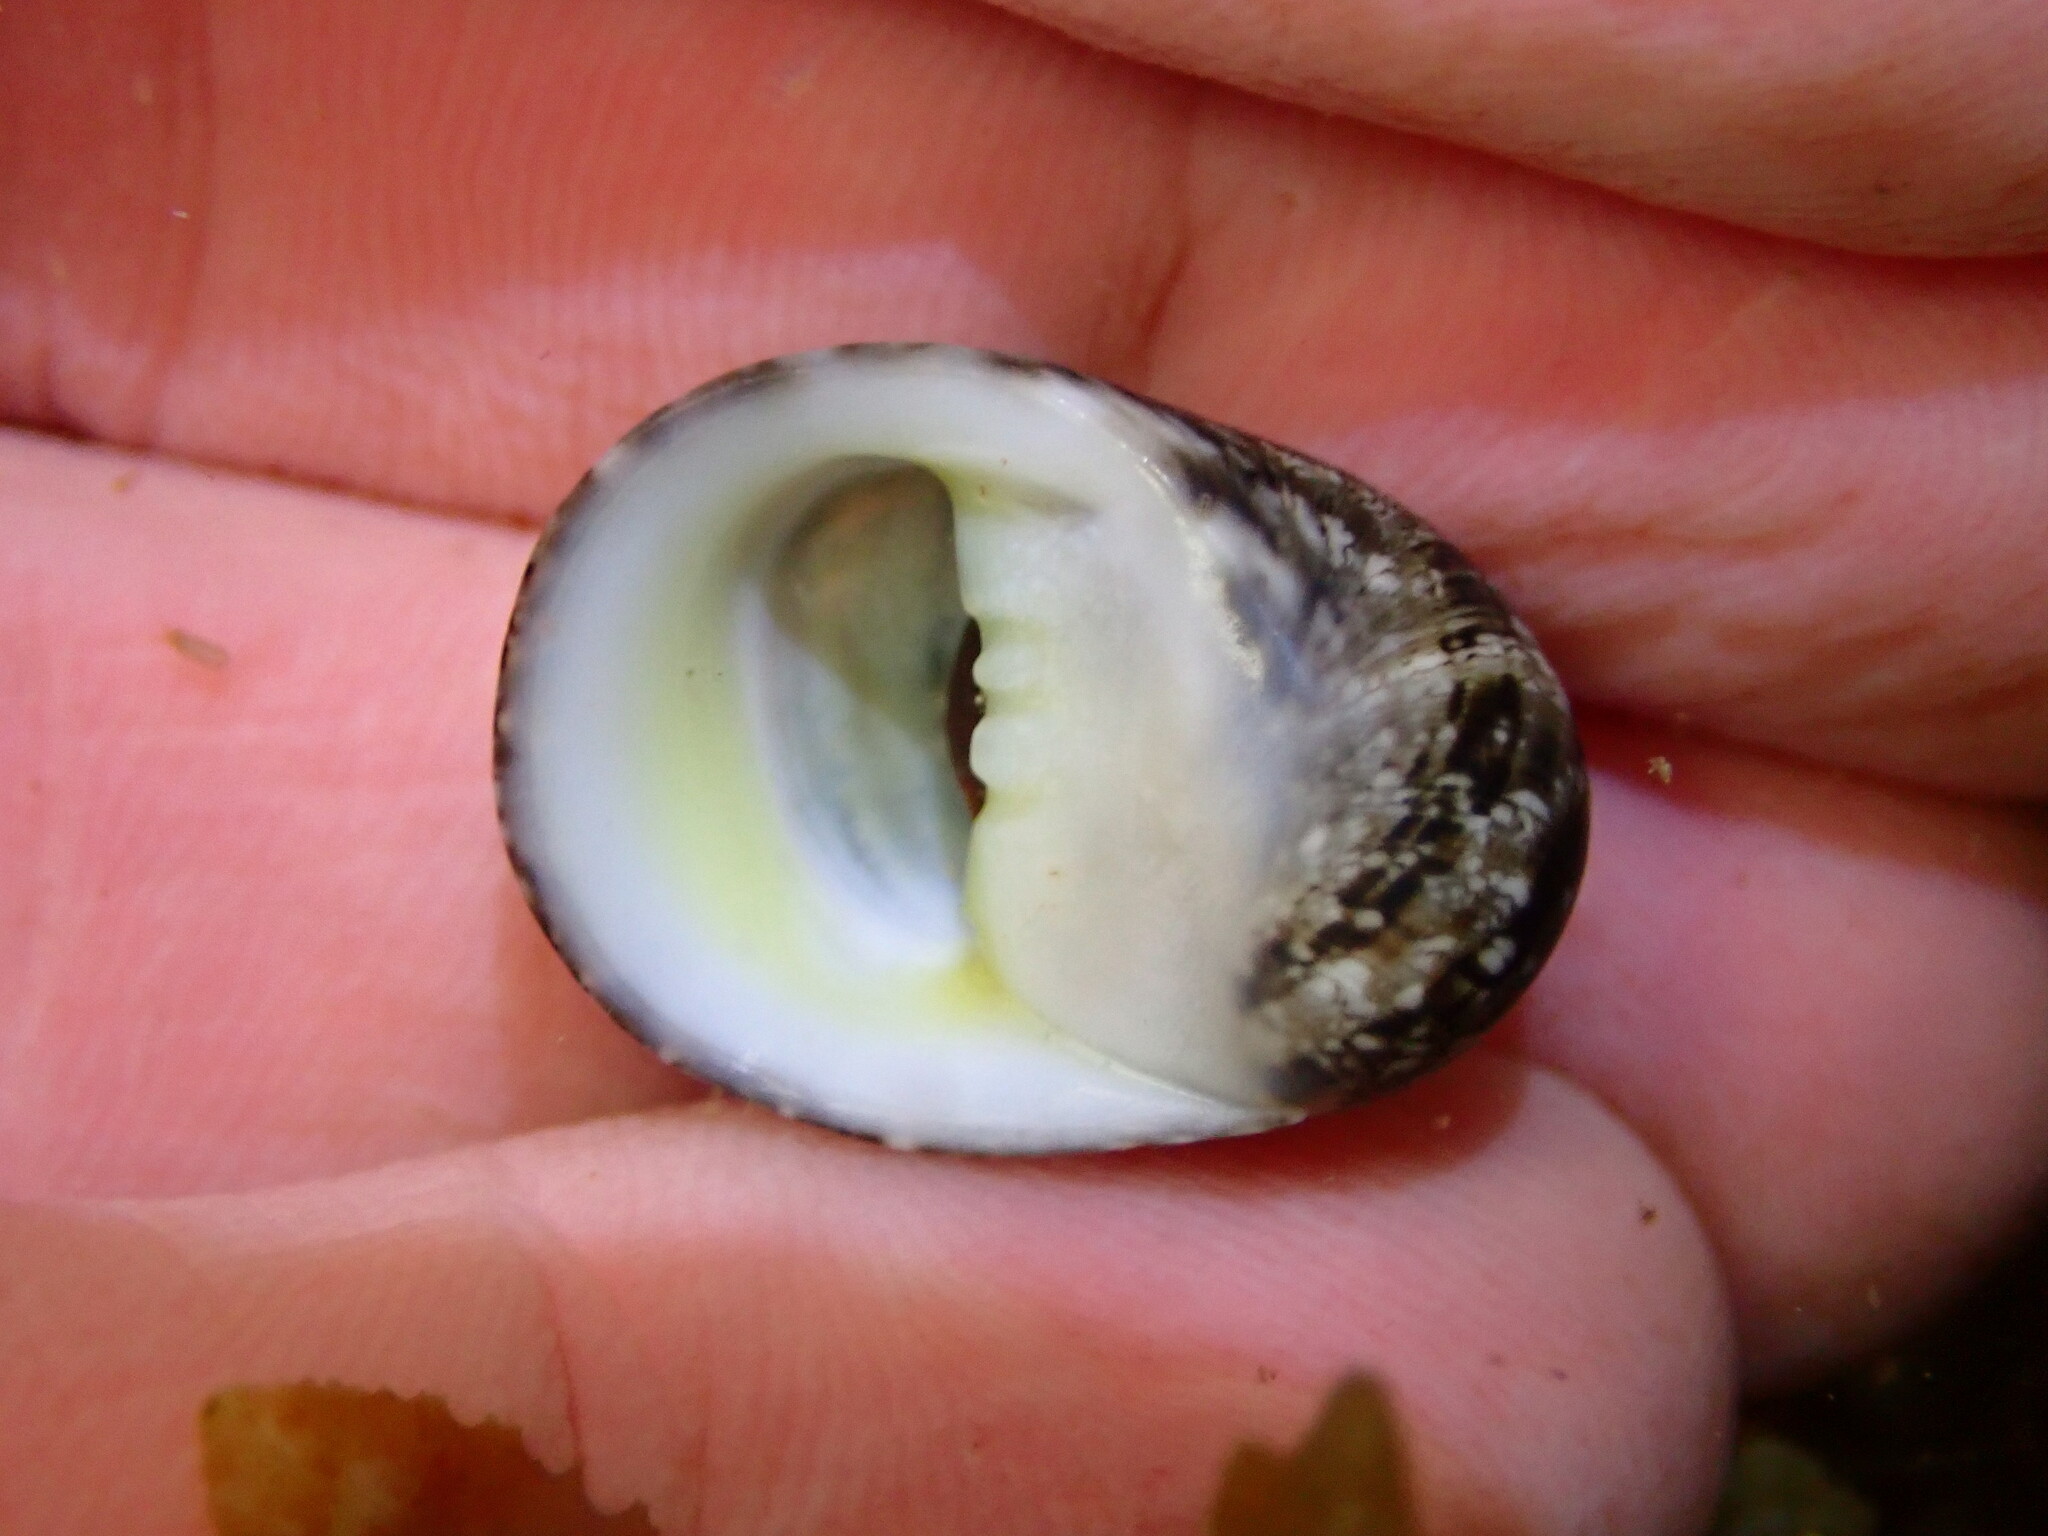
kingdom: Animalia
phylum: Mollusca
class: Gastropoda
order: Cycloneritida
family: Neritidae
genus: Nerita
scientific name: Nerita polita
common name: Polished nerite
